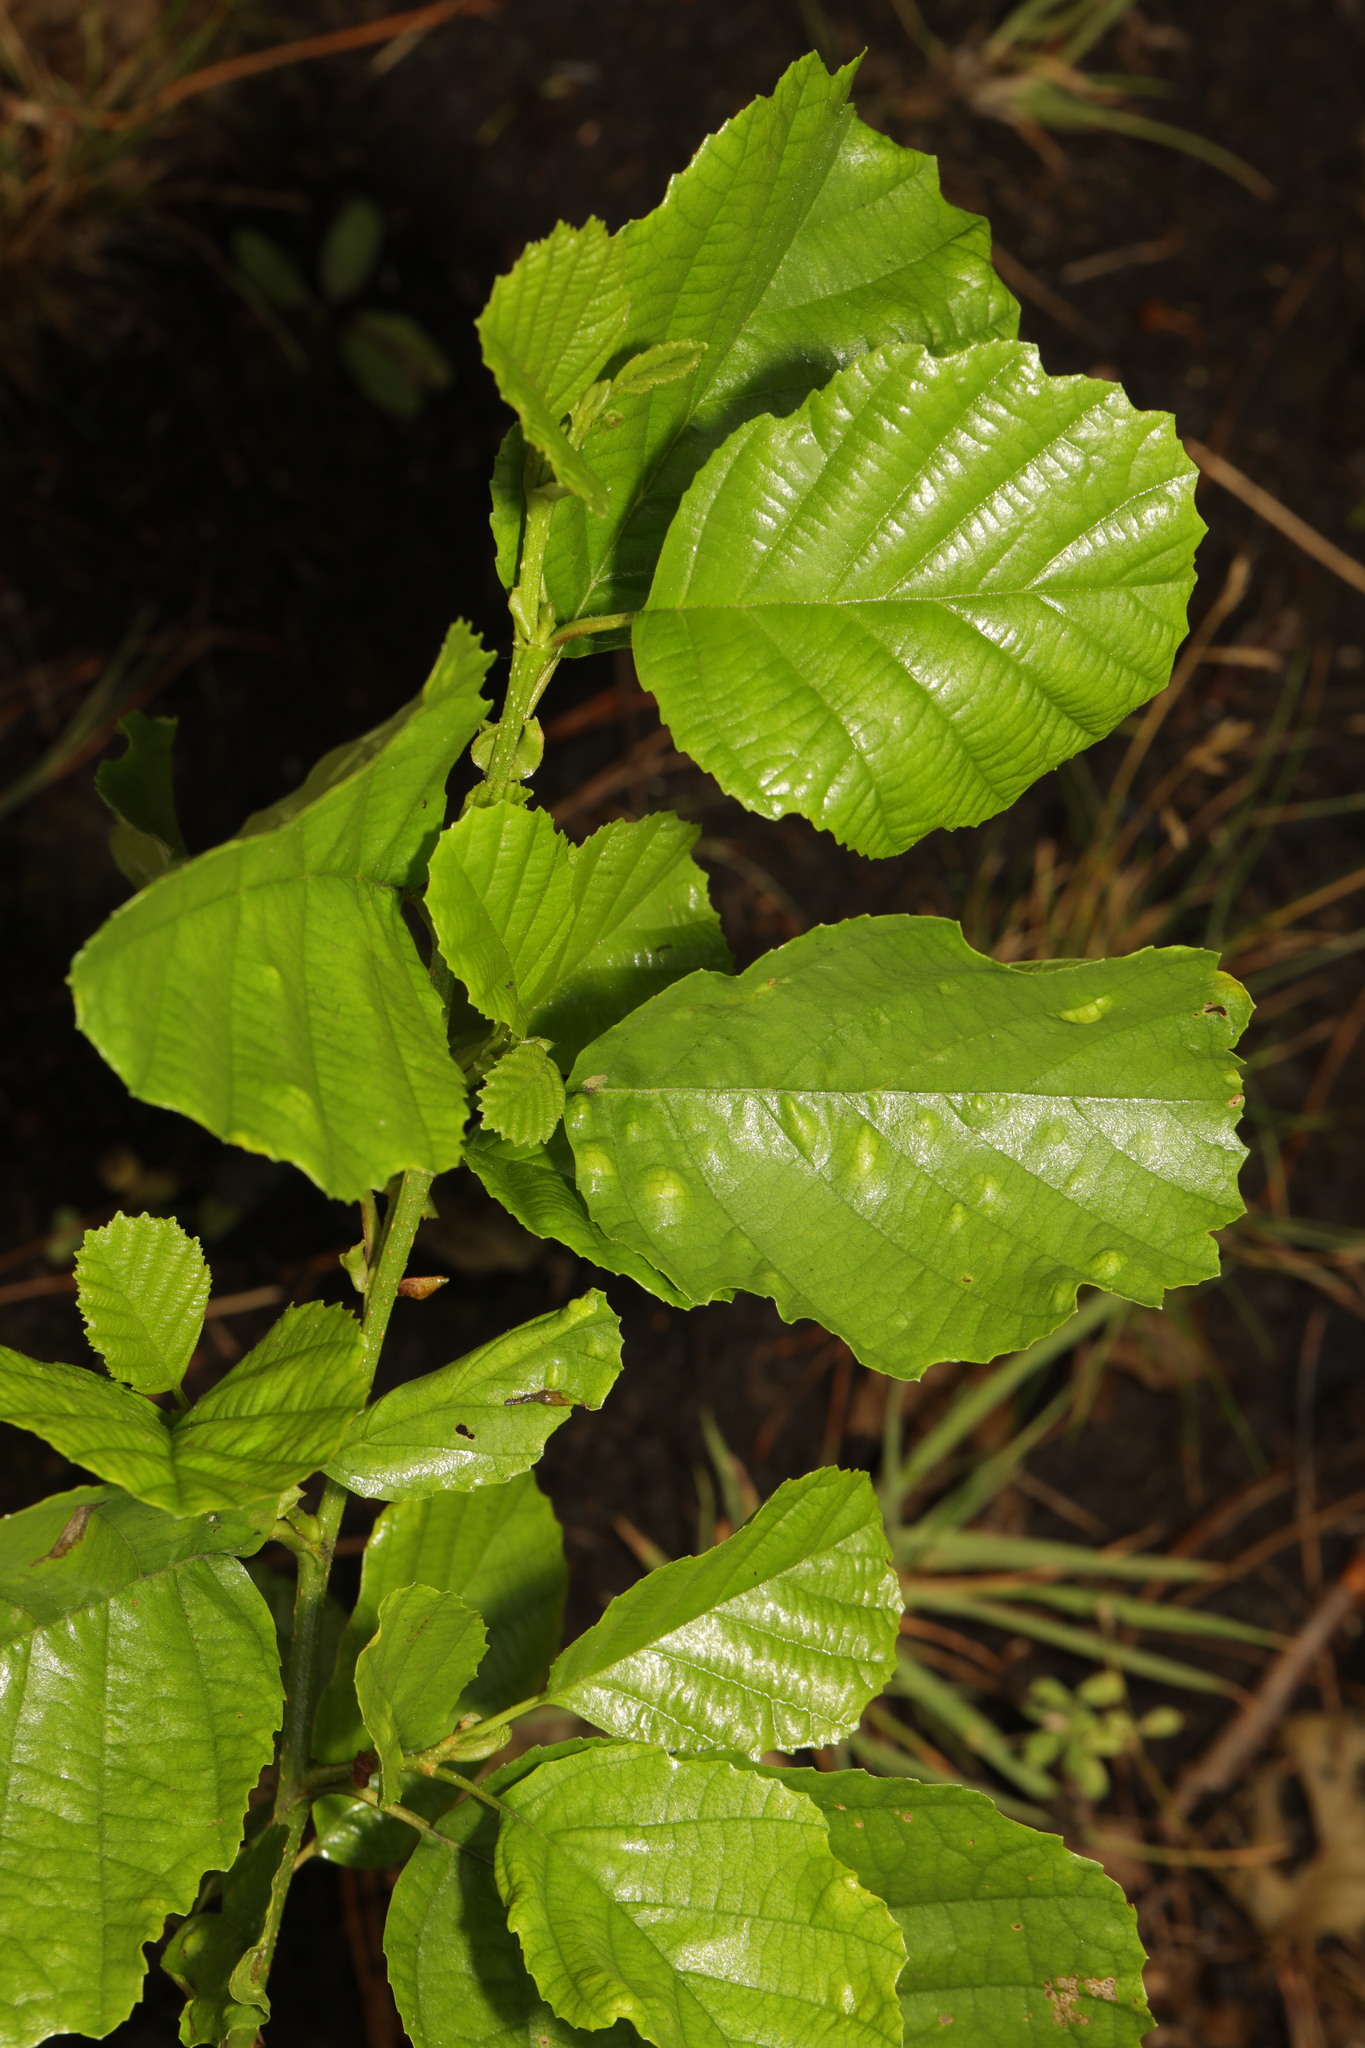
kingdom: Plantae
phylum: Tracheophyta
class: Magnoliopsida
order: Fagales
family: Betulaceae
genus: Alnus
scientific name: Alnus glutinosa
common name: Black alder
